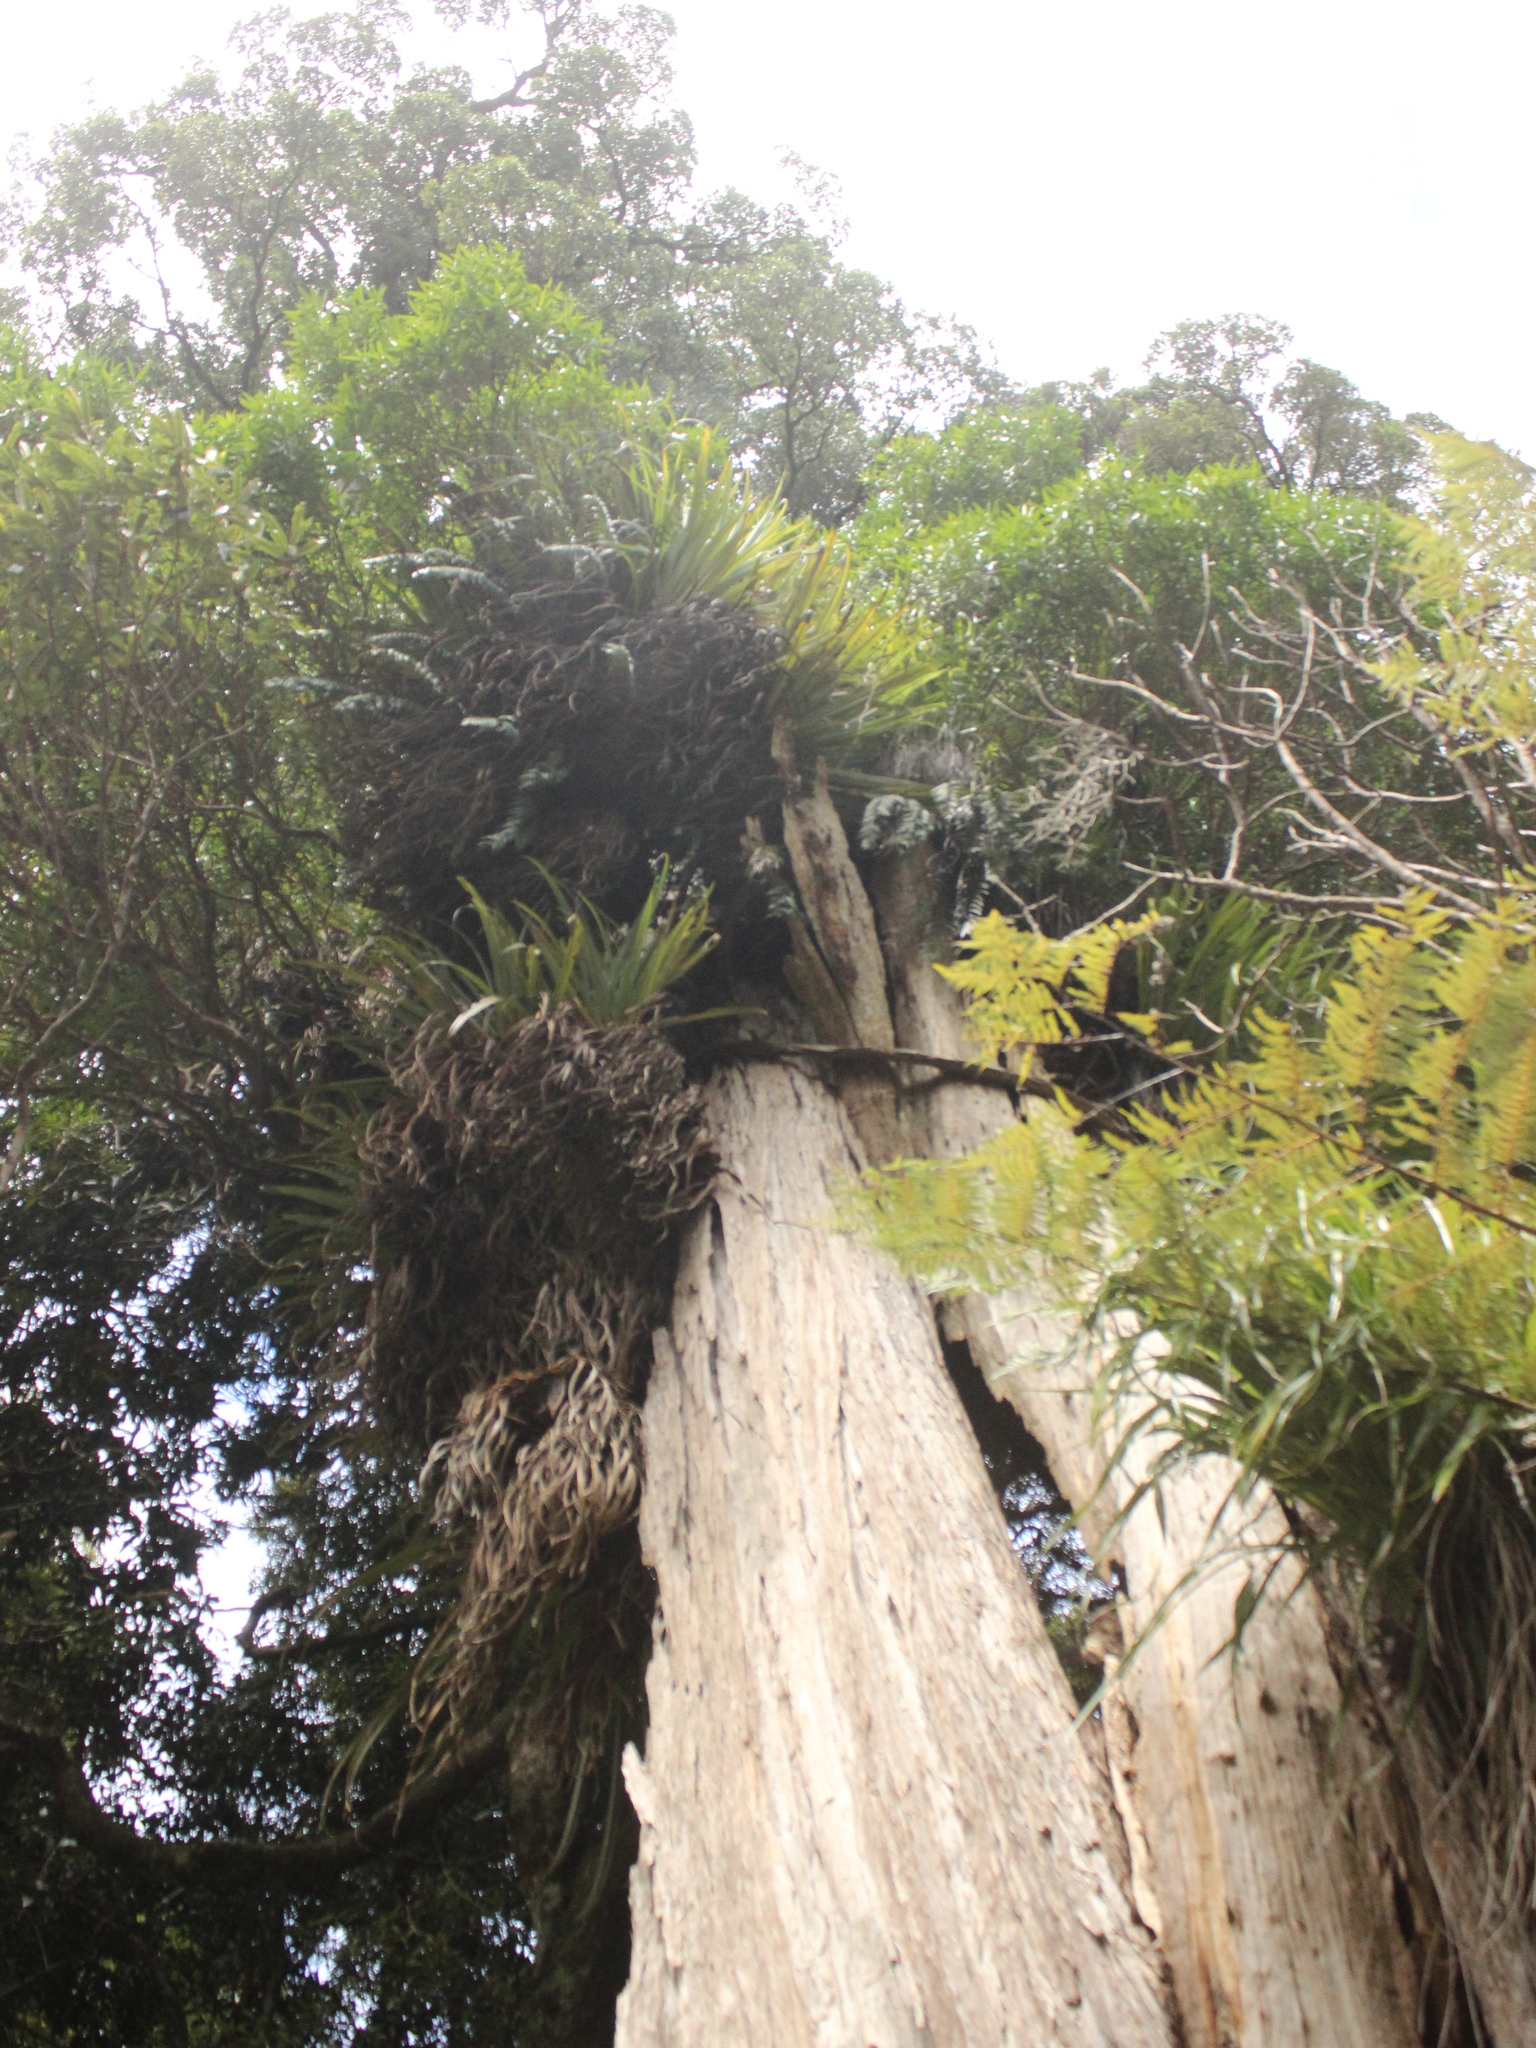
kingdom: Plantae
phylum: Tracheophyta
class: Magnoliopsida
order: Myrtales
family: Myrtaceae
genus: Metrosideros
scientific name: Metrosideros robusta
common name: Northern rata
